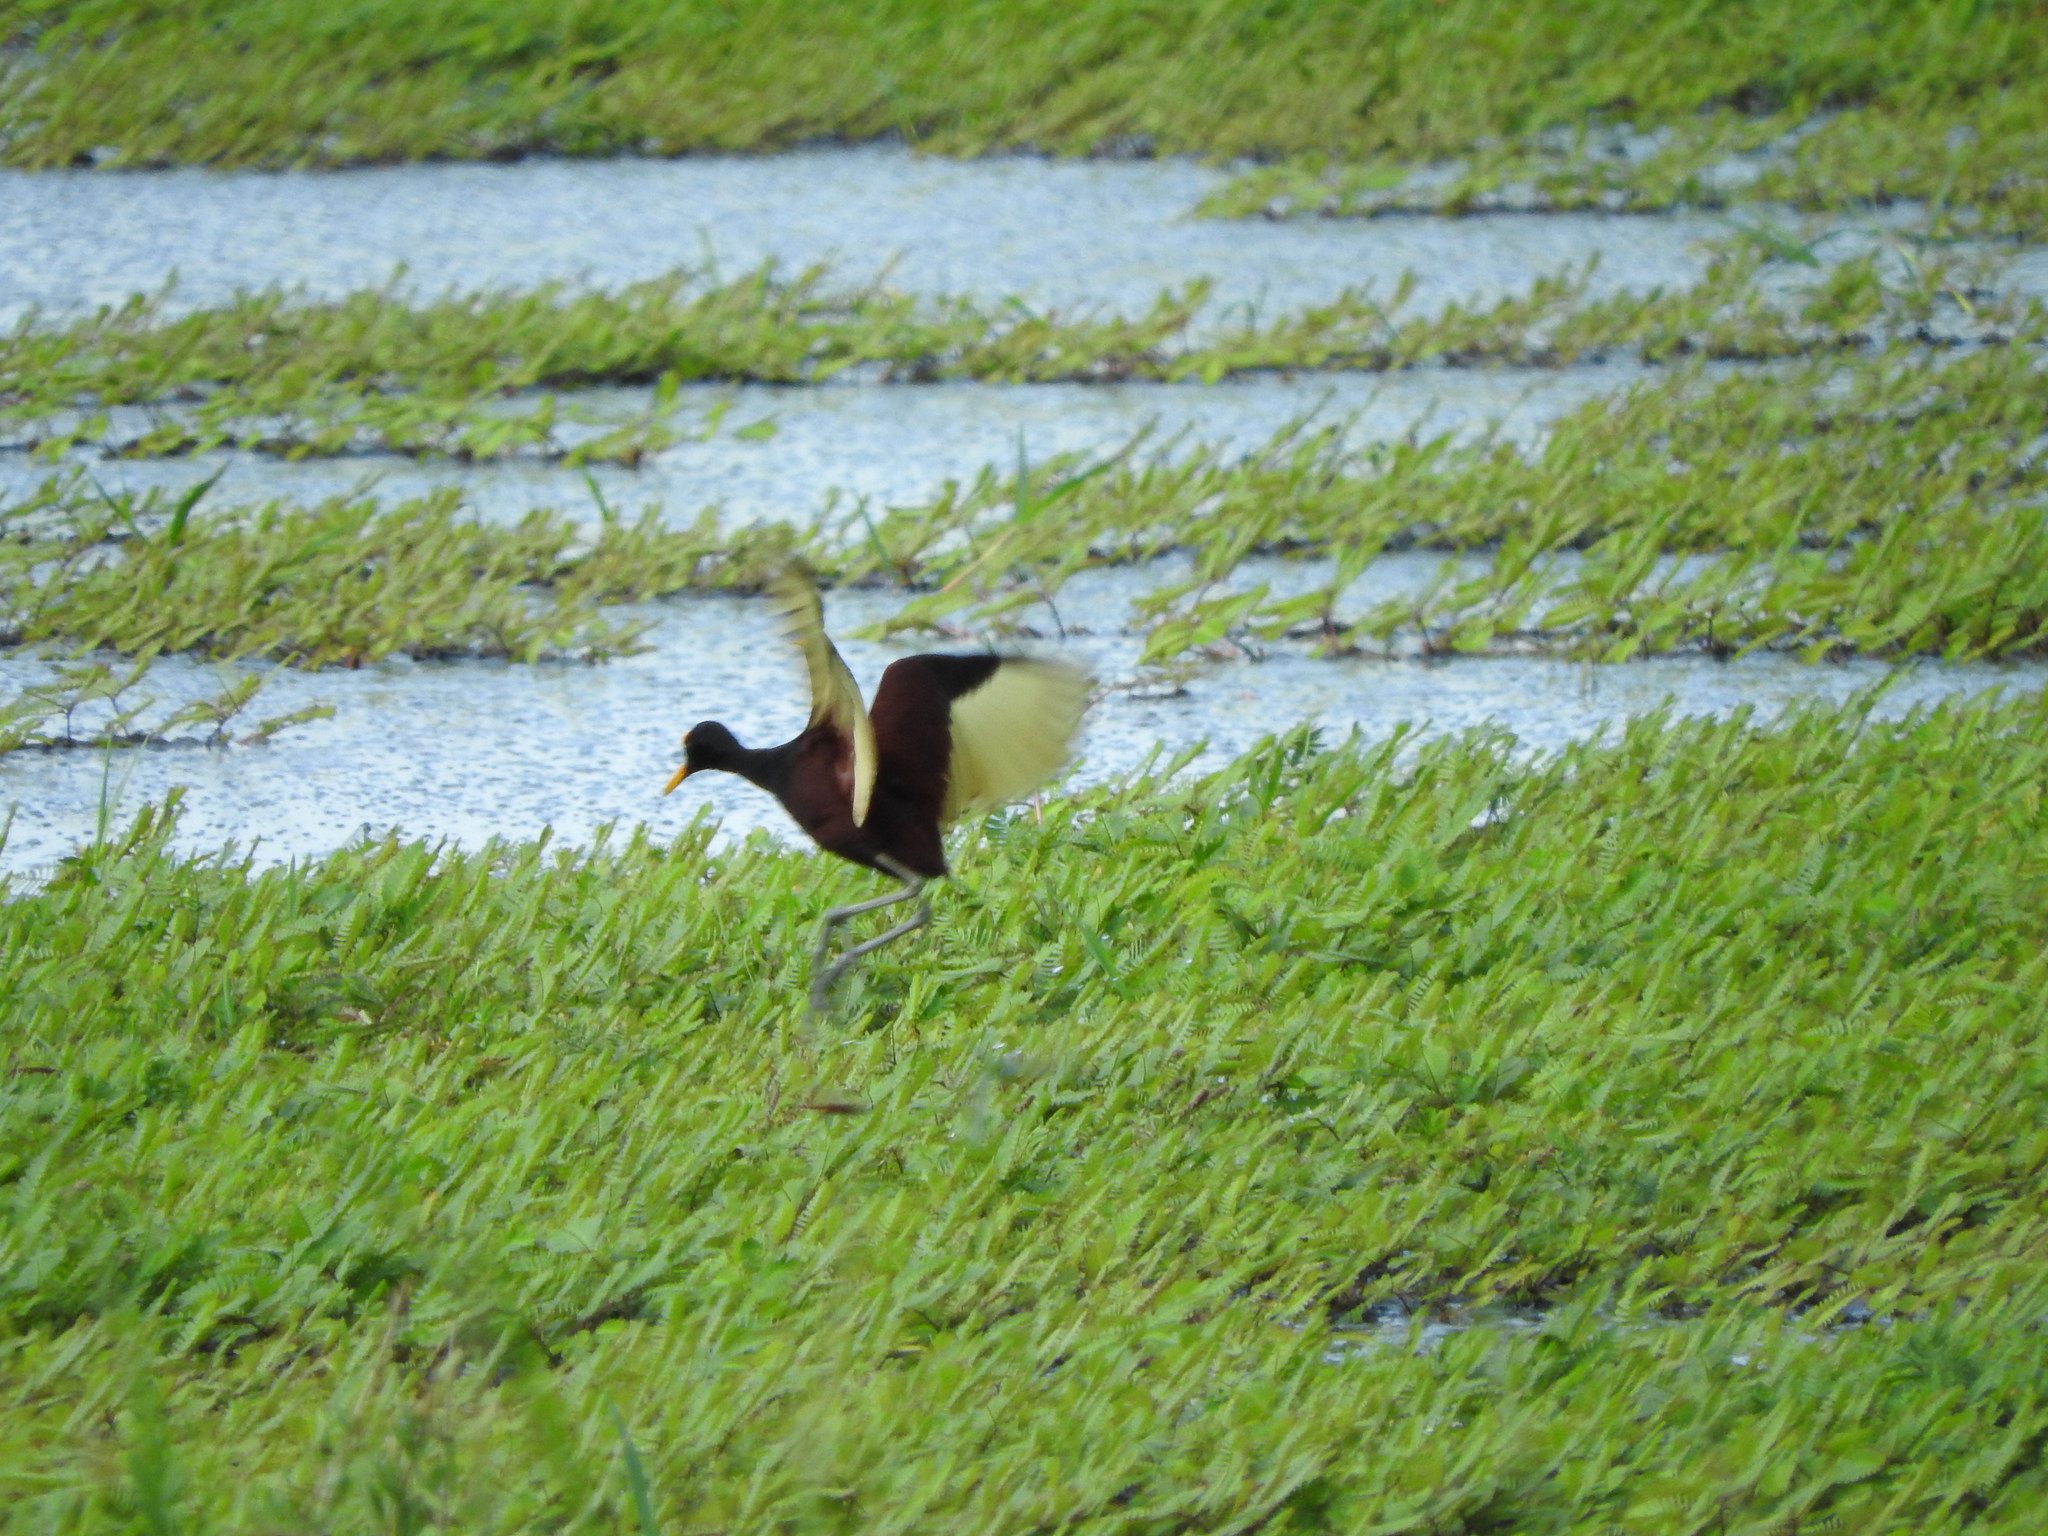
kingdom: Animalia
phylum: Chordata
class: Aves
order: Charadriiformes
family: Jacanidae
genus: Jacana
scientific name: Jacana spinosa
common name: Northern jacana
